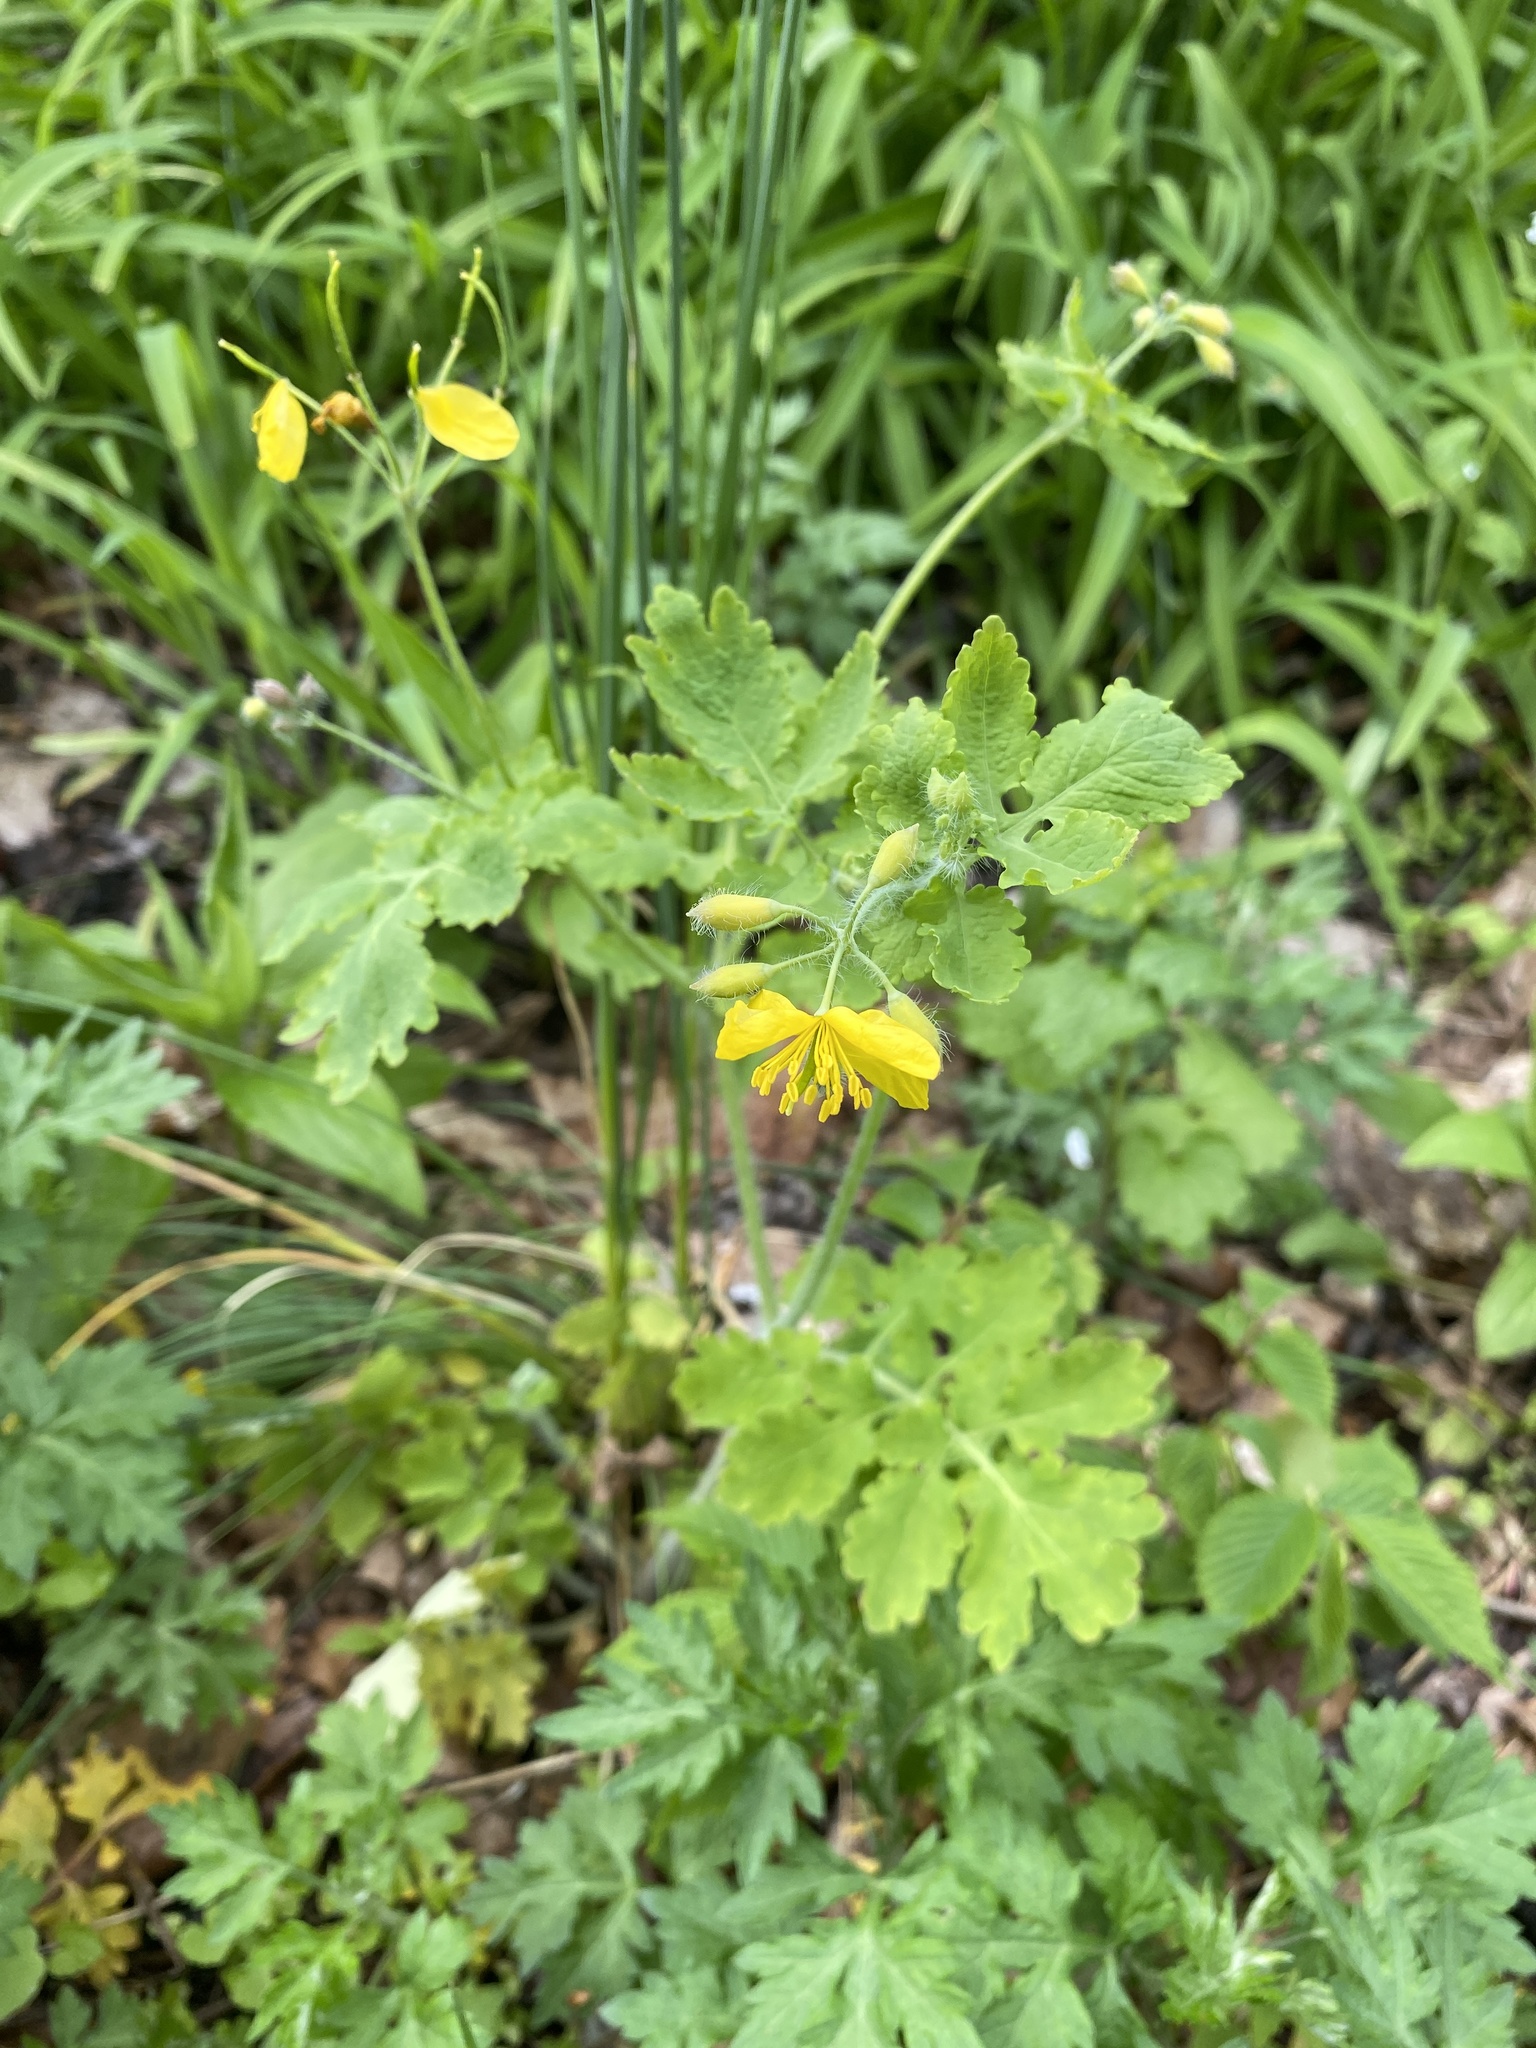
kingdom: Plantae
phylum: Tracheophyta
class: Magnoliopsida
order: Ranunculales
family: Papaveraceae
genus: Chelidonium
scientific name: Chelidonium majus
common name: Greater celandine
